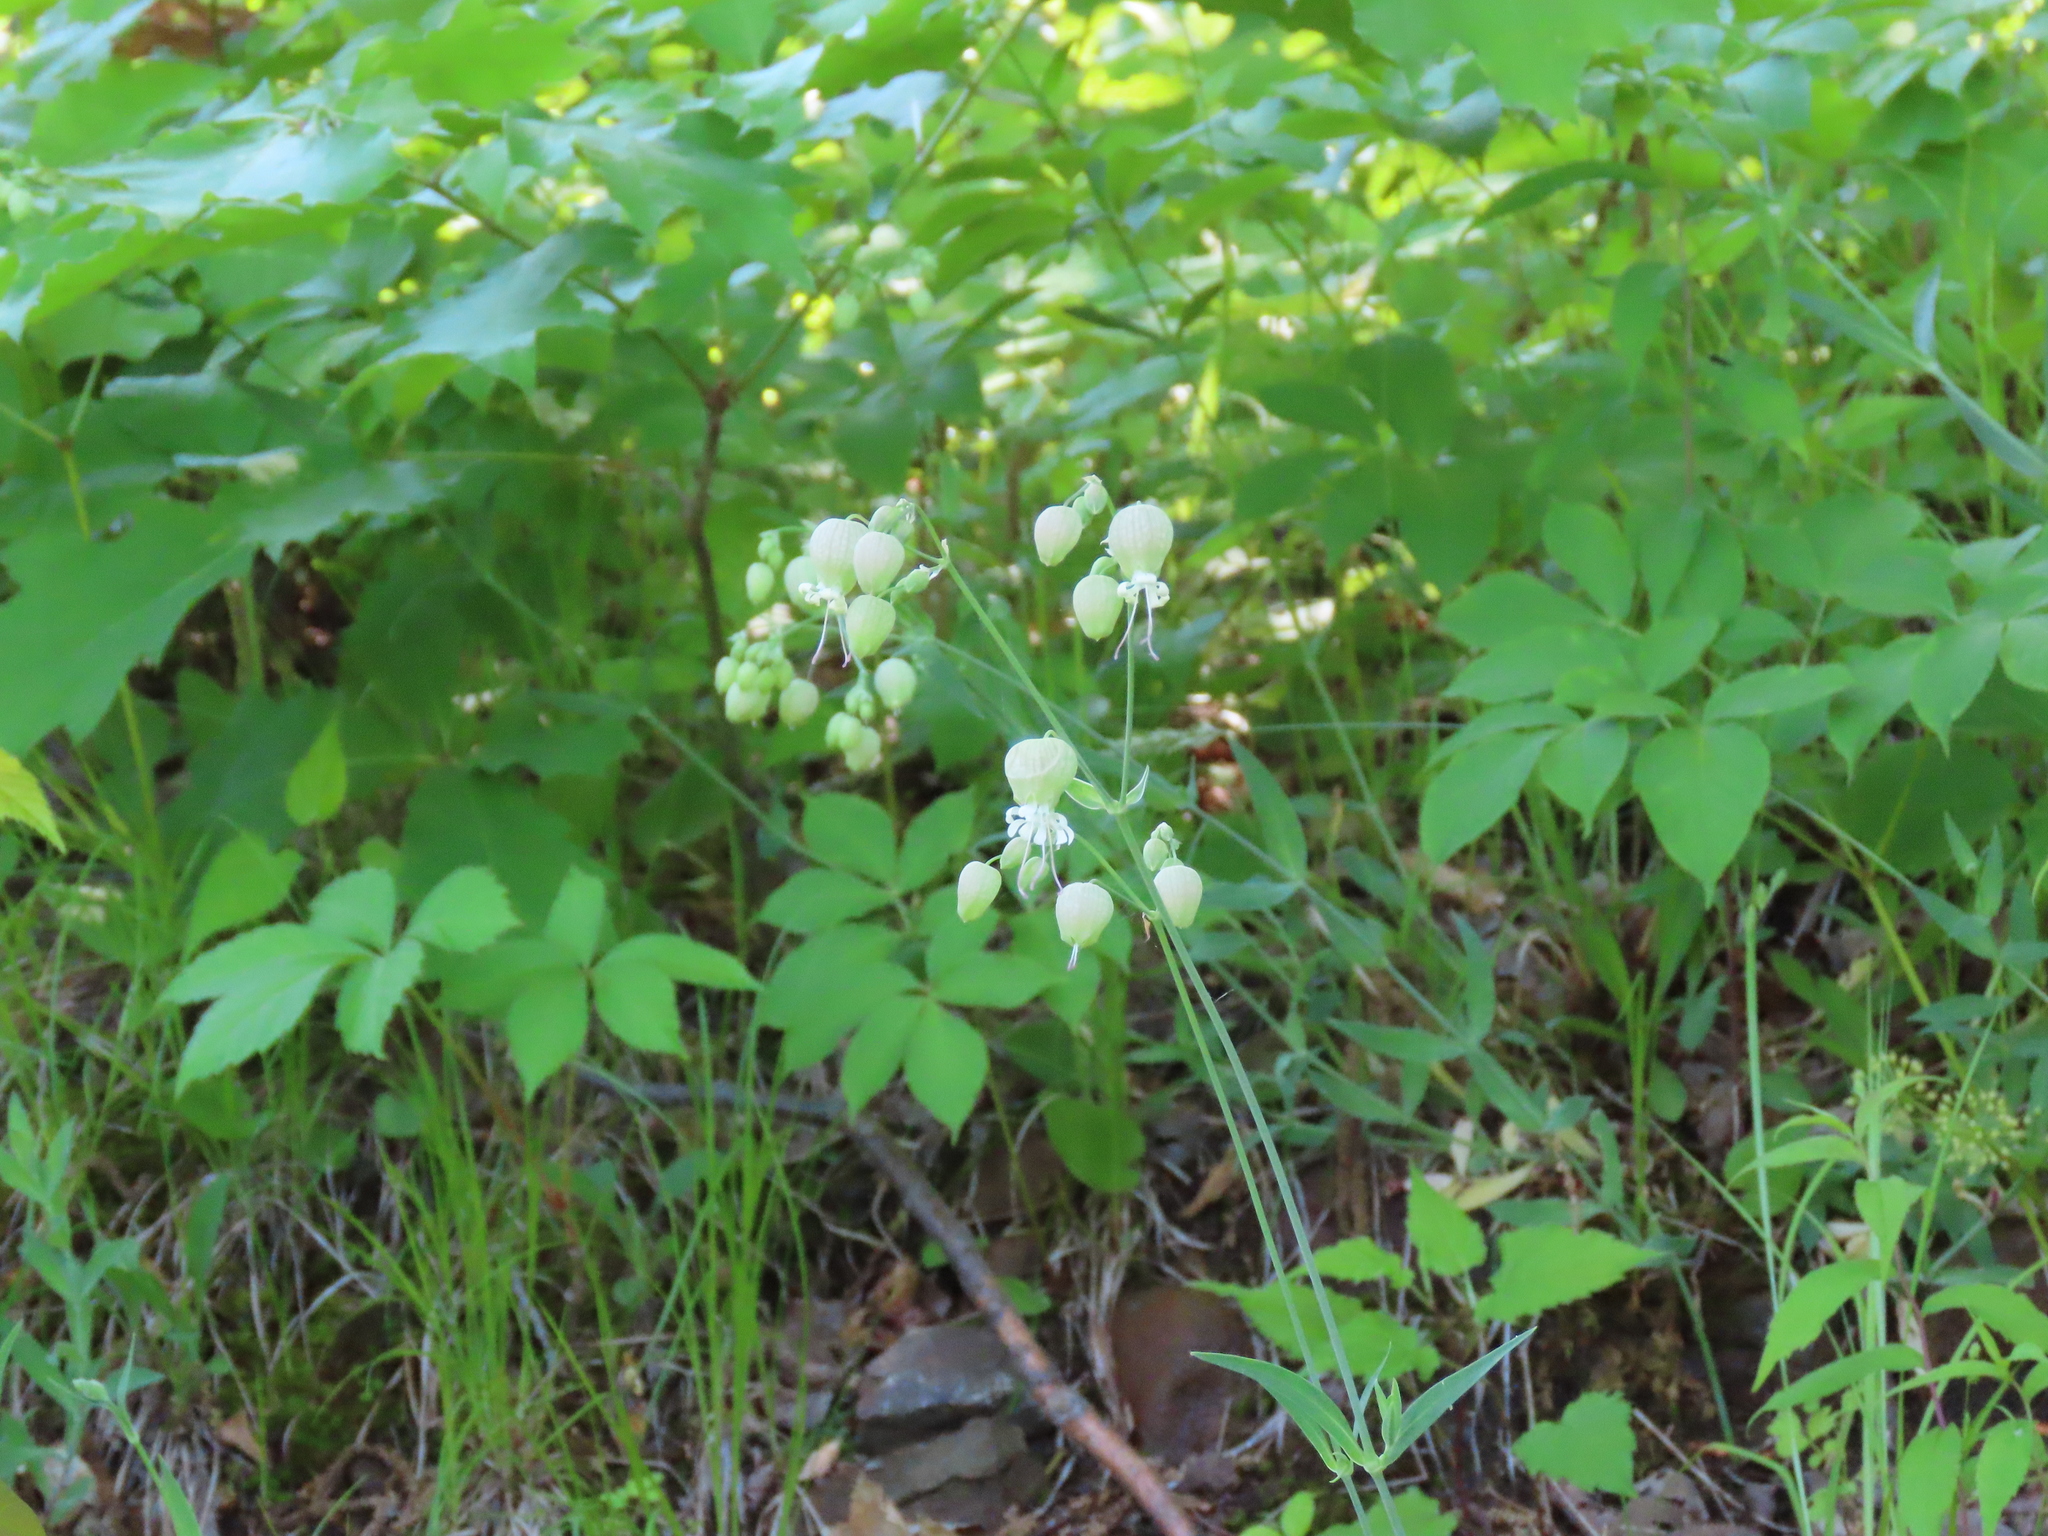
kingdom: Plantae
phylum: Tracheophyta
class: Magnoliopsida
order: Caryophyllales
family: Caryophyllaceae
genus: Silene
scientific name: Silene vulgaris
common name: Bladder campion
